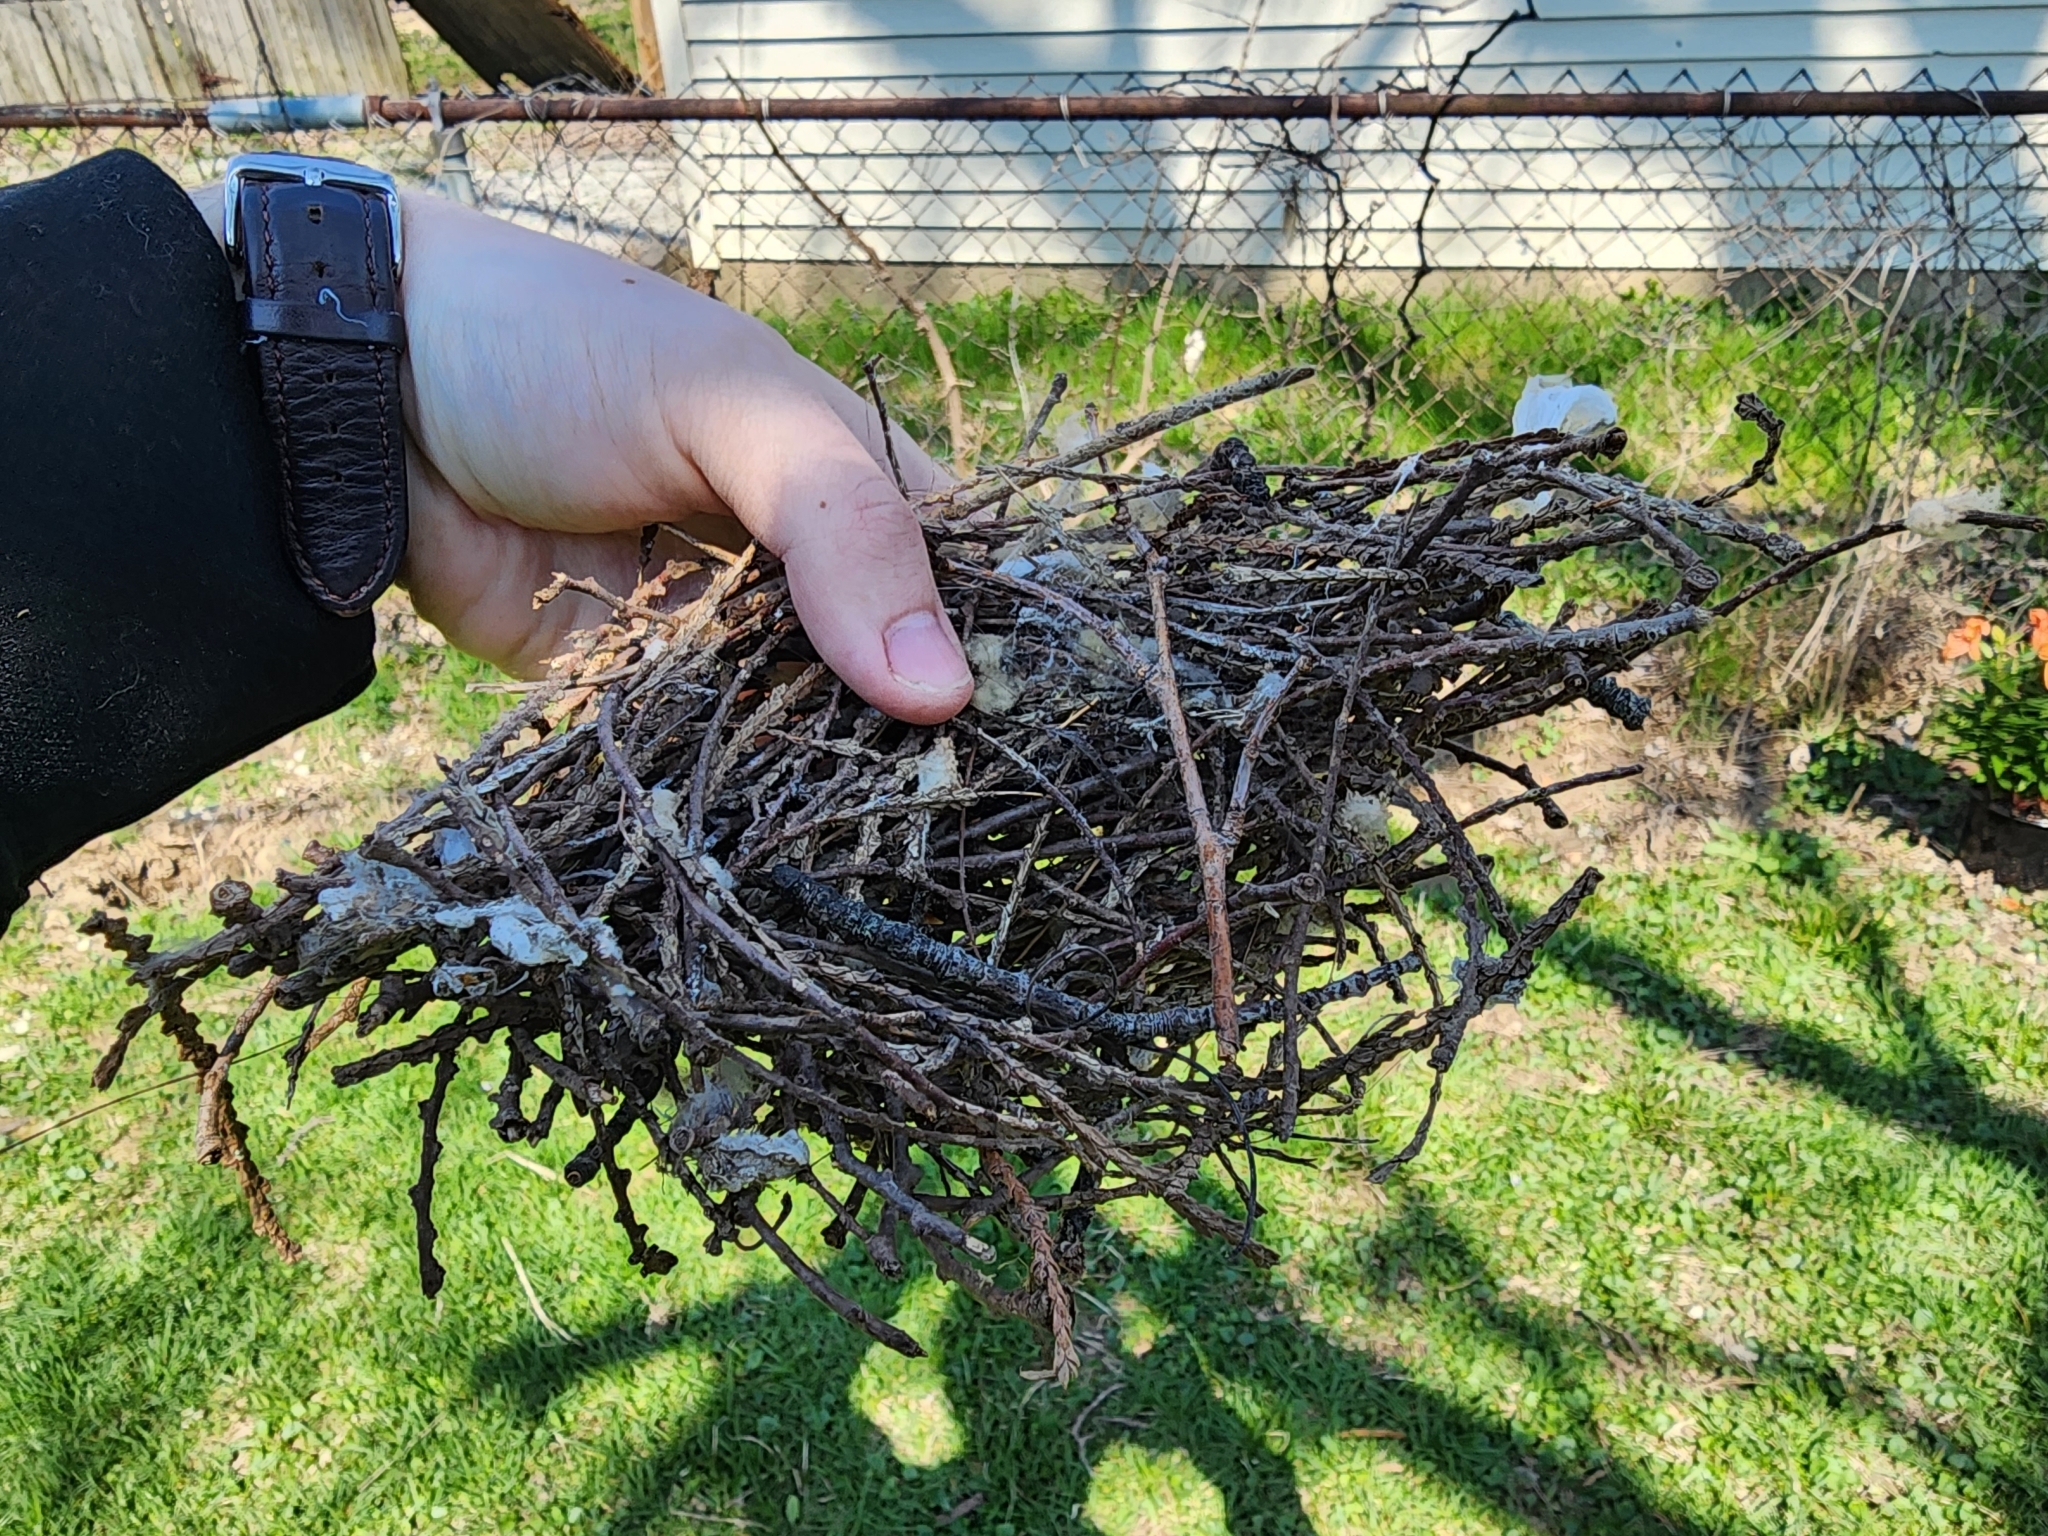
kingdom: Animalia
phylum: Chordata
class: Aves
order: Passeriformes
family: Troglodytidae
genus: Troglodytes
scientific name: Troglodytes aedon
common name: House wren
